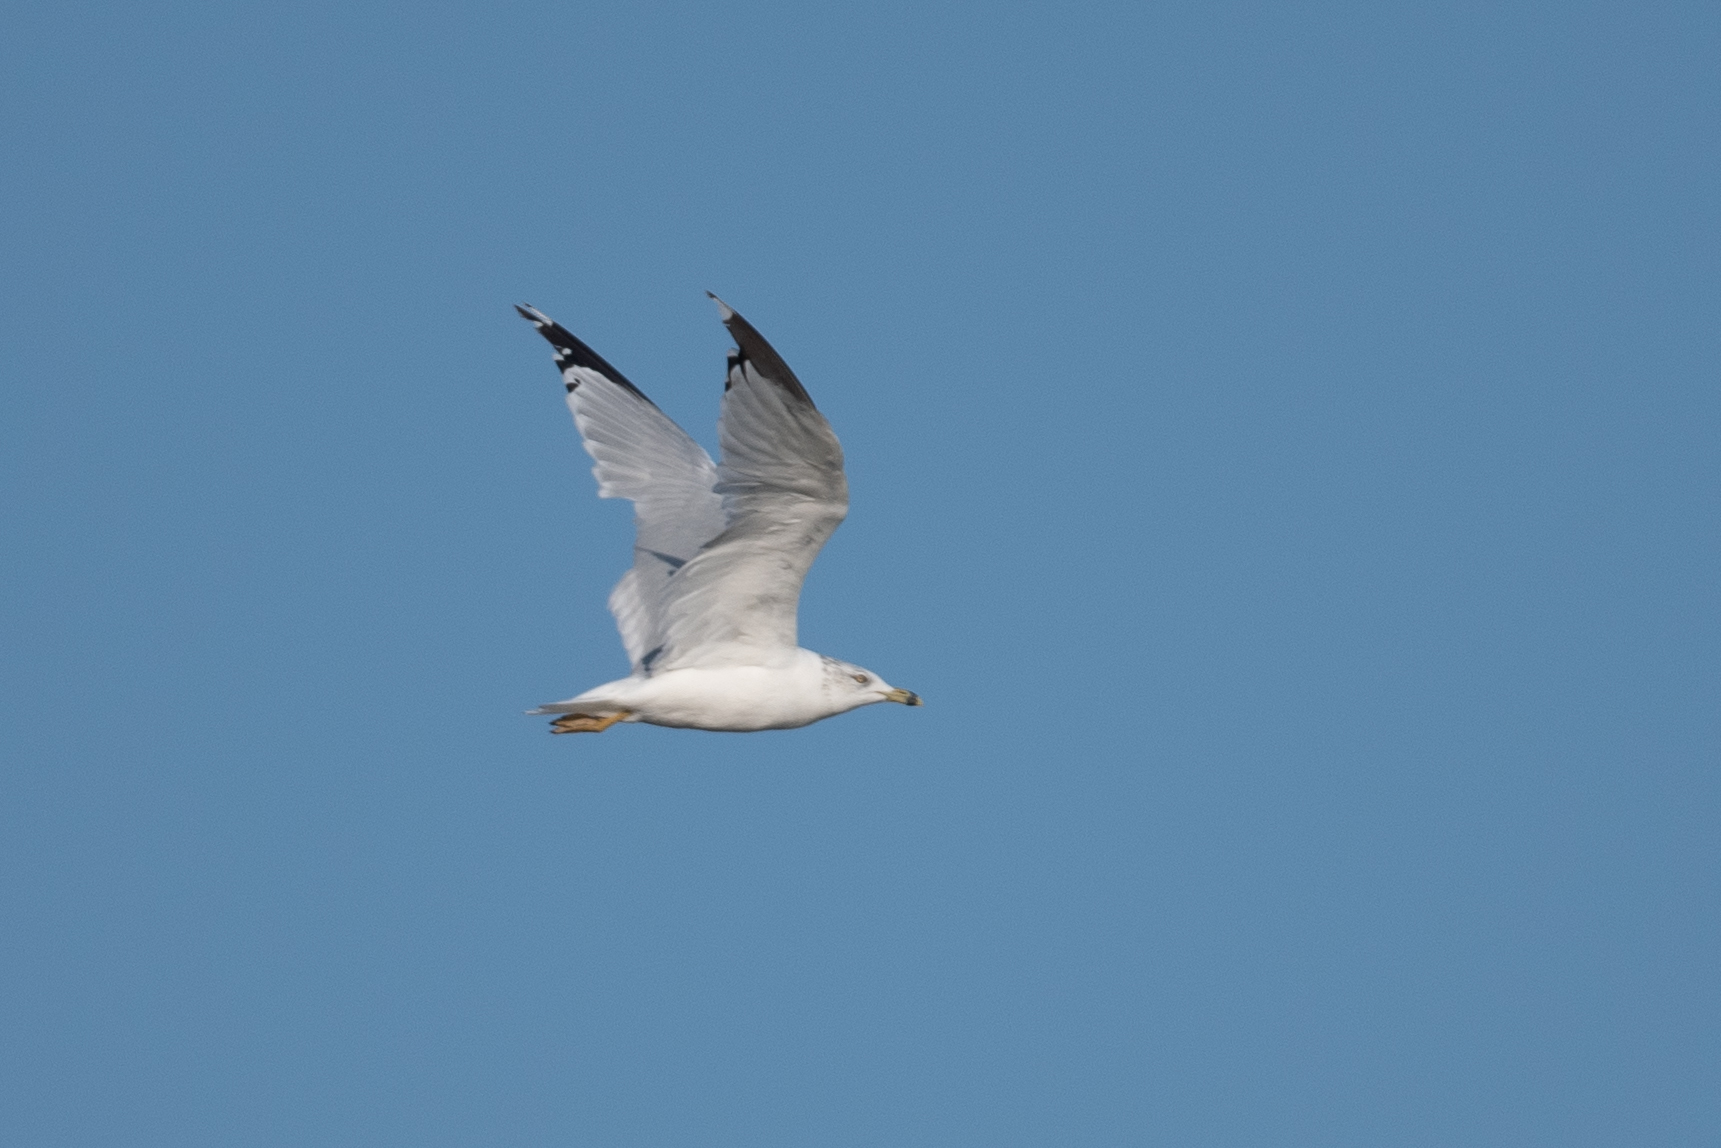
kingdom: Animalia
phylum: Chordata
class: Aves
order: Charadriiformes
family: Laridae
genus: Larus
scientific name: Larus delawarensis
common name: Ring-billed gull
